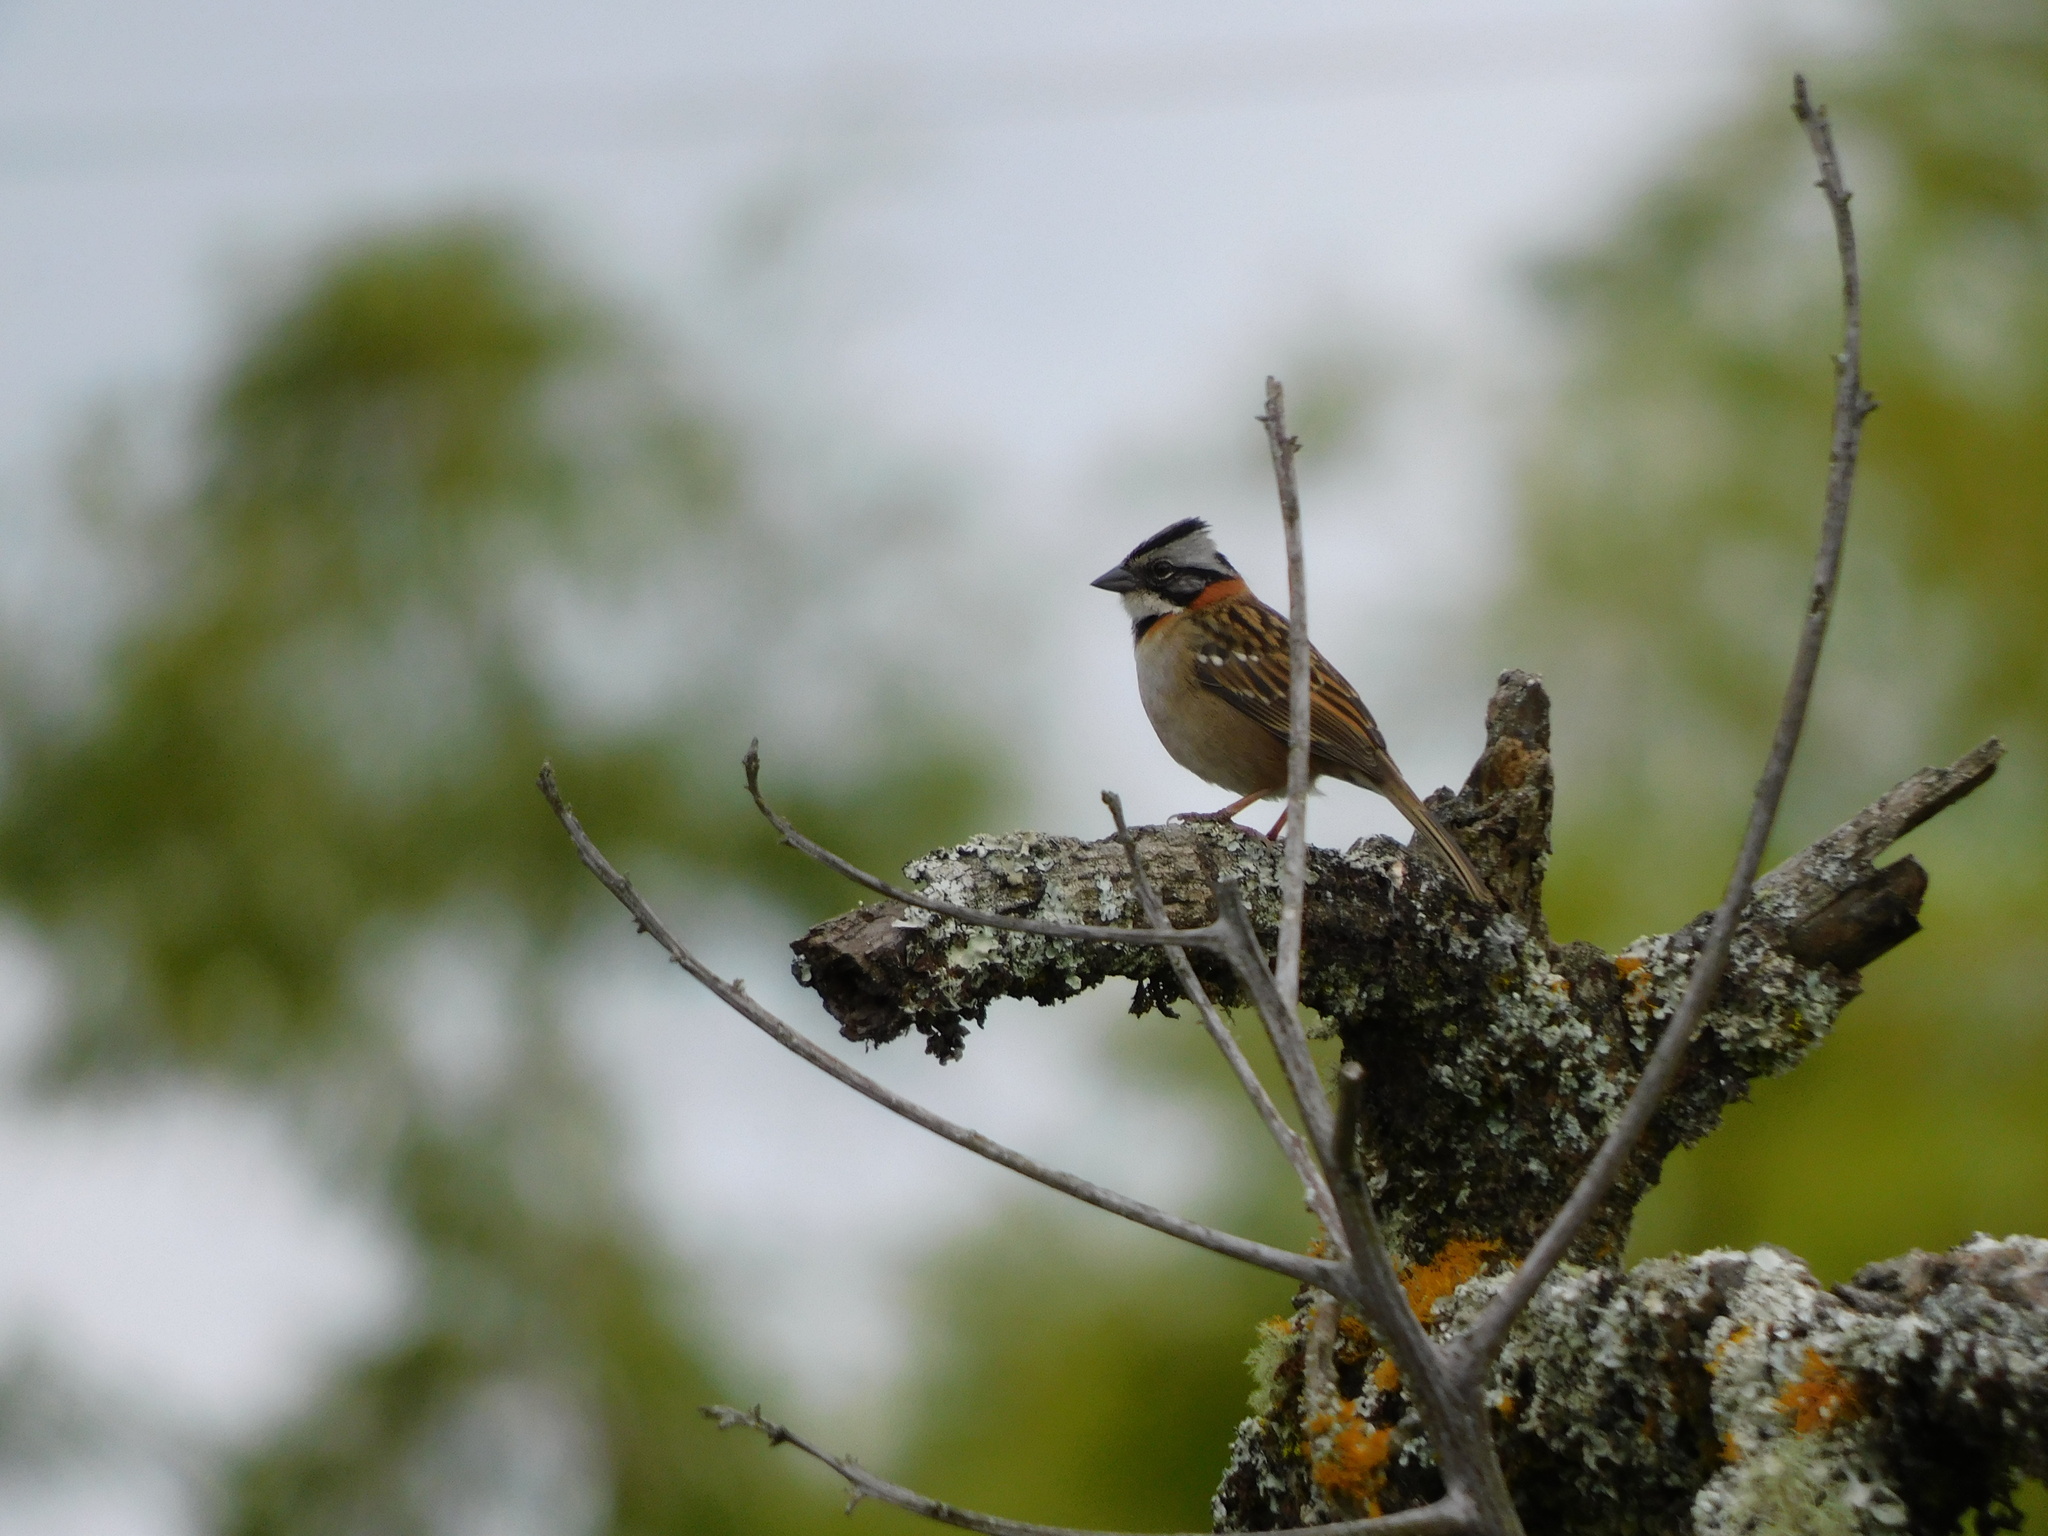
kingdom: Animalia
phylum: Chordata
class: Aves
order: Passeriformes
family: Passerellidae
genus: Zonotrichia
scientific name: Zonotrichia capensis
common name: Rufous-collared sparrow
